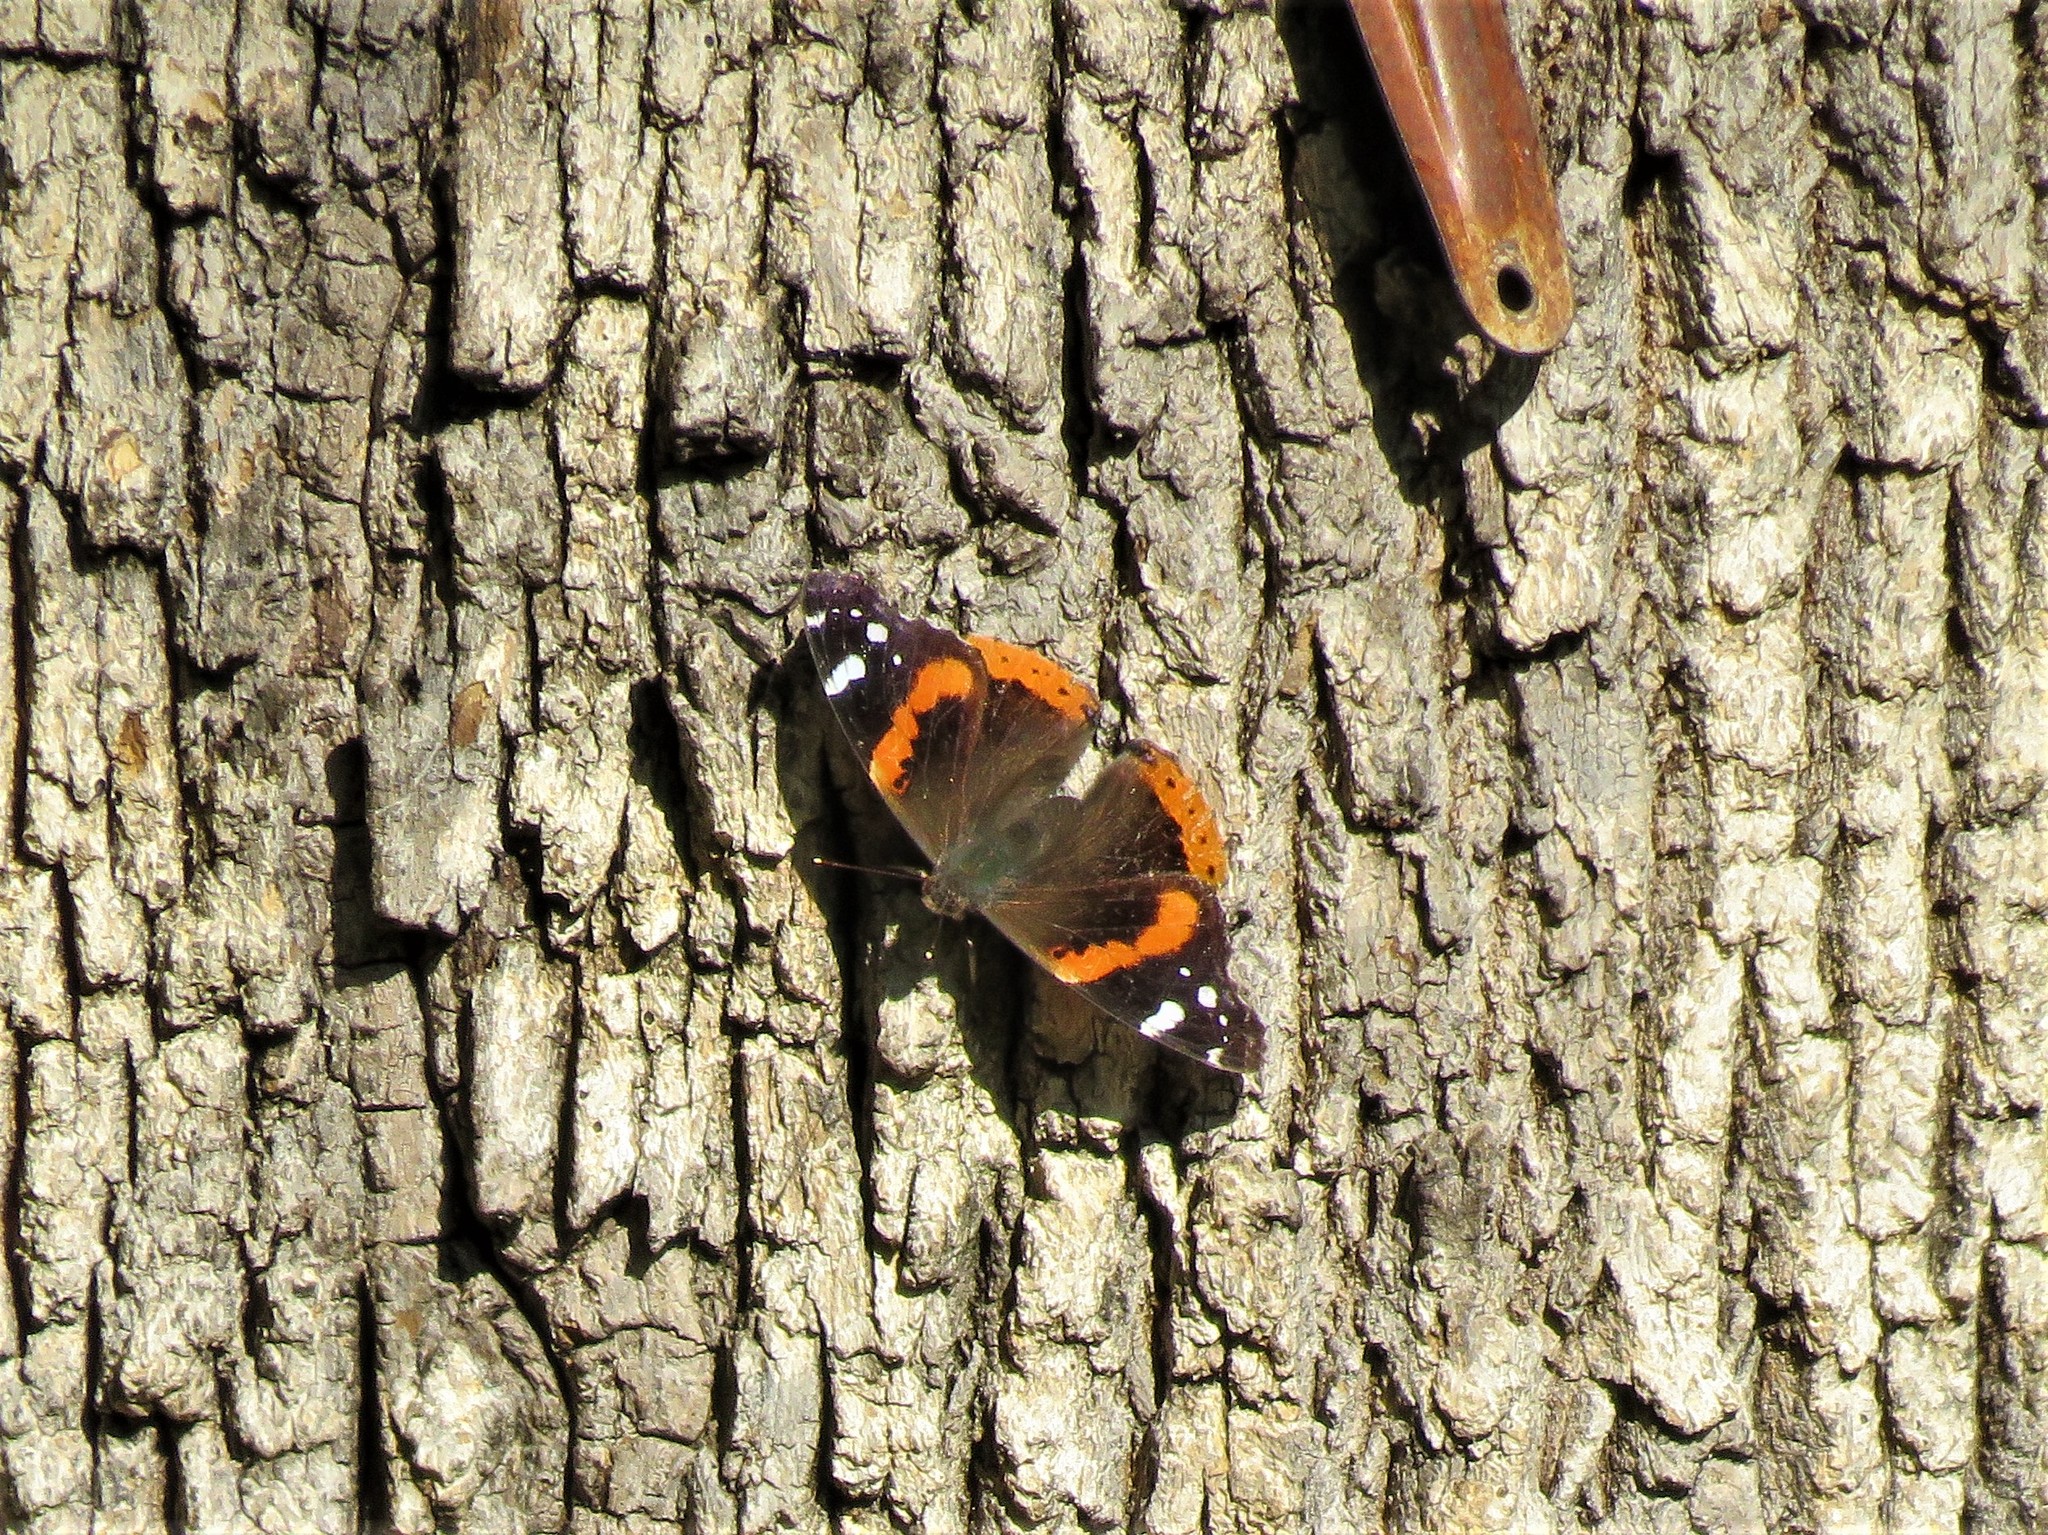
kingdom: Animalia
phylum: Arthropoda
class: Insecta
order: Lepidoptera
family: Nymphalidae
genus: Vanessa
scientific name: Vanessa atalanta
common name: Red admiral
